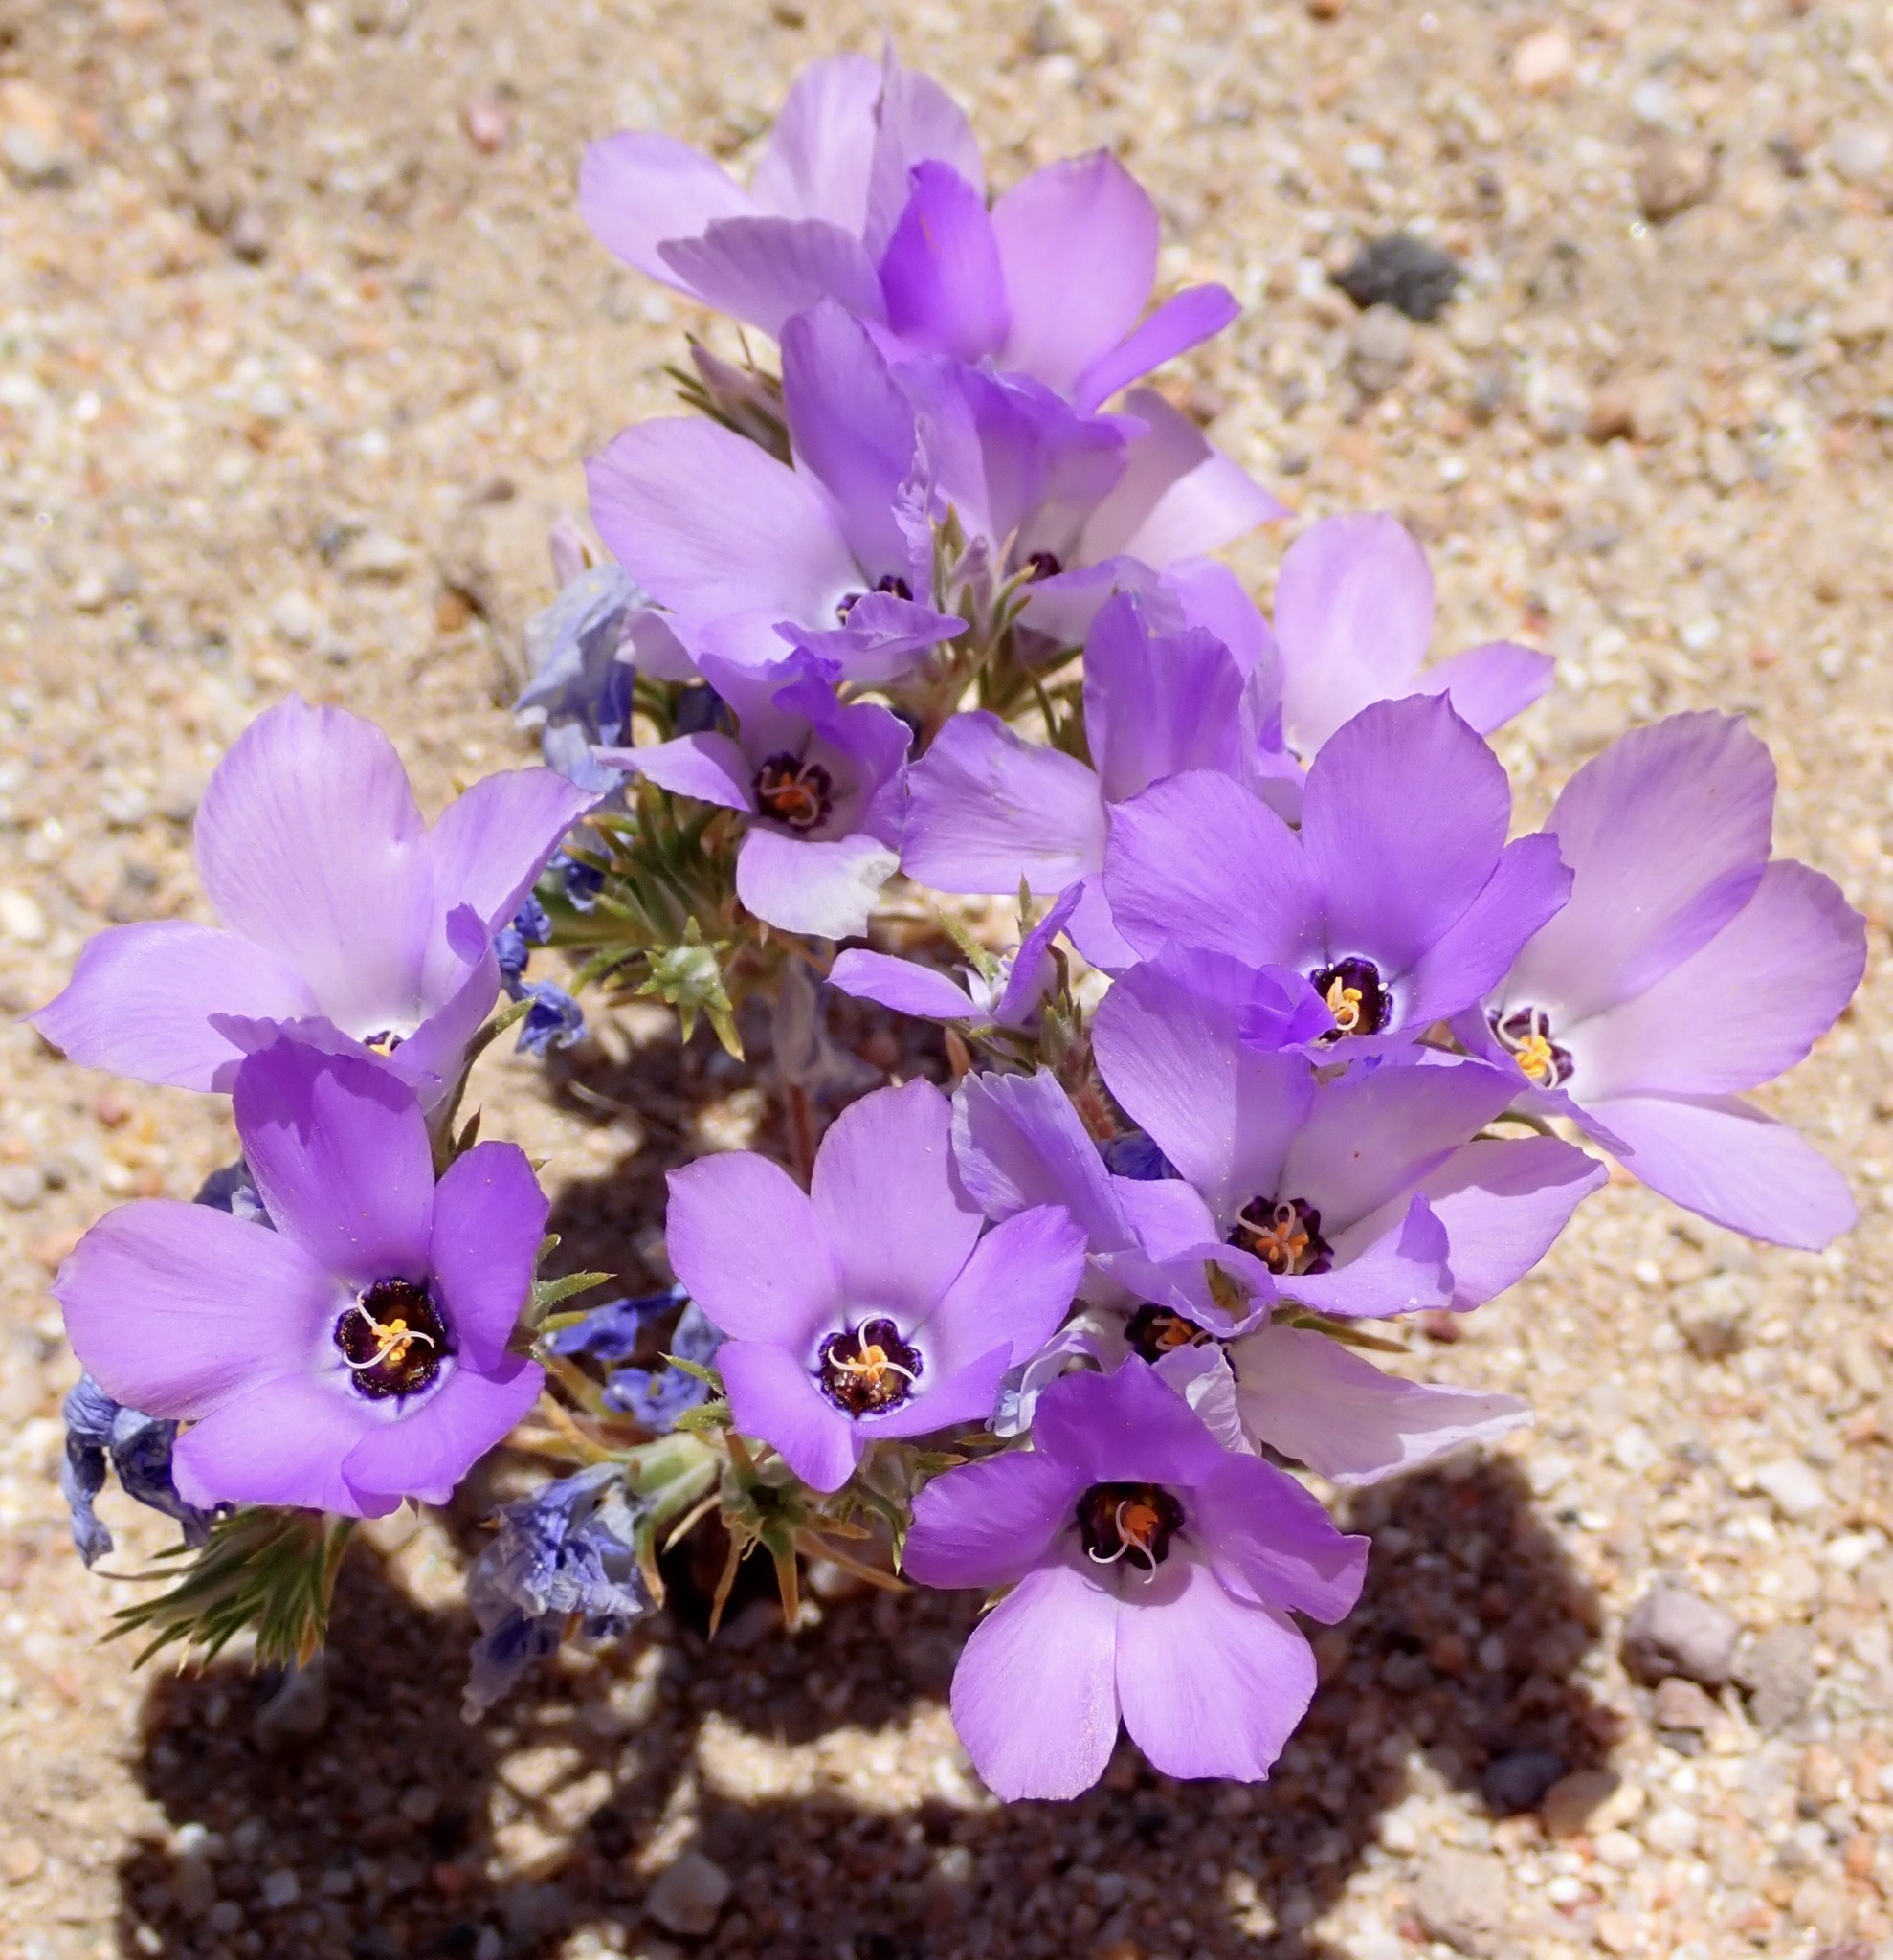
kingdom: Plantae
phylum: Tracheophyta
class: Magnoliopsida
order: Ericales
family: Polemoniaceae
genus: Linanthus
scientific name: Linanthus parryae
